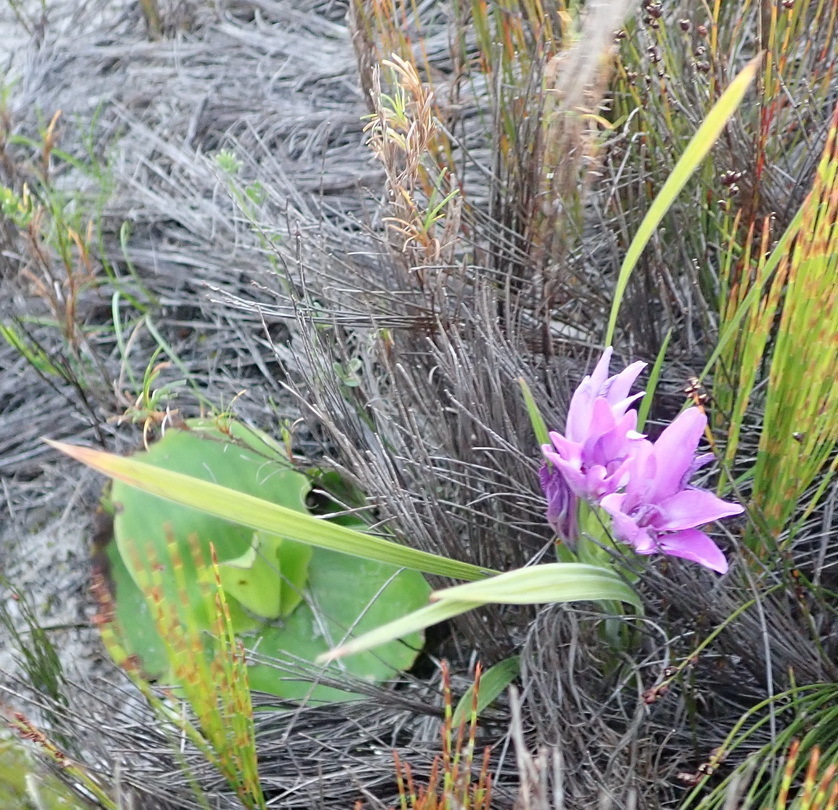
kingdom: Plantae
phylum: Tracheophyta
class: Liliopsida
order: Asparagales
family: Iridaceae
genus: Babiana
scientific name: Babiana ambigua
